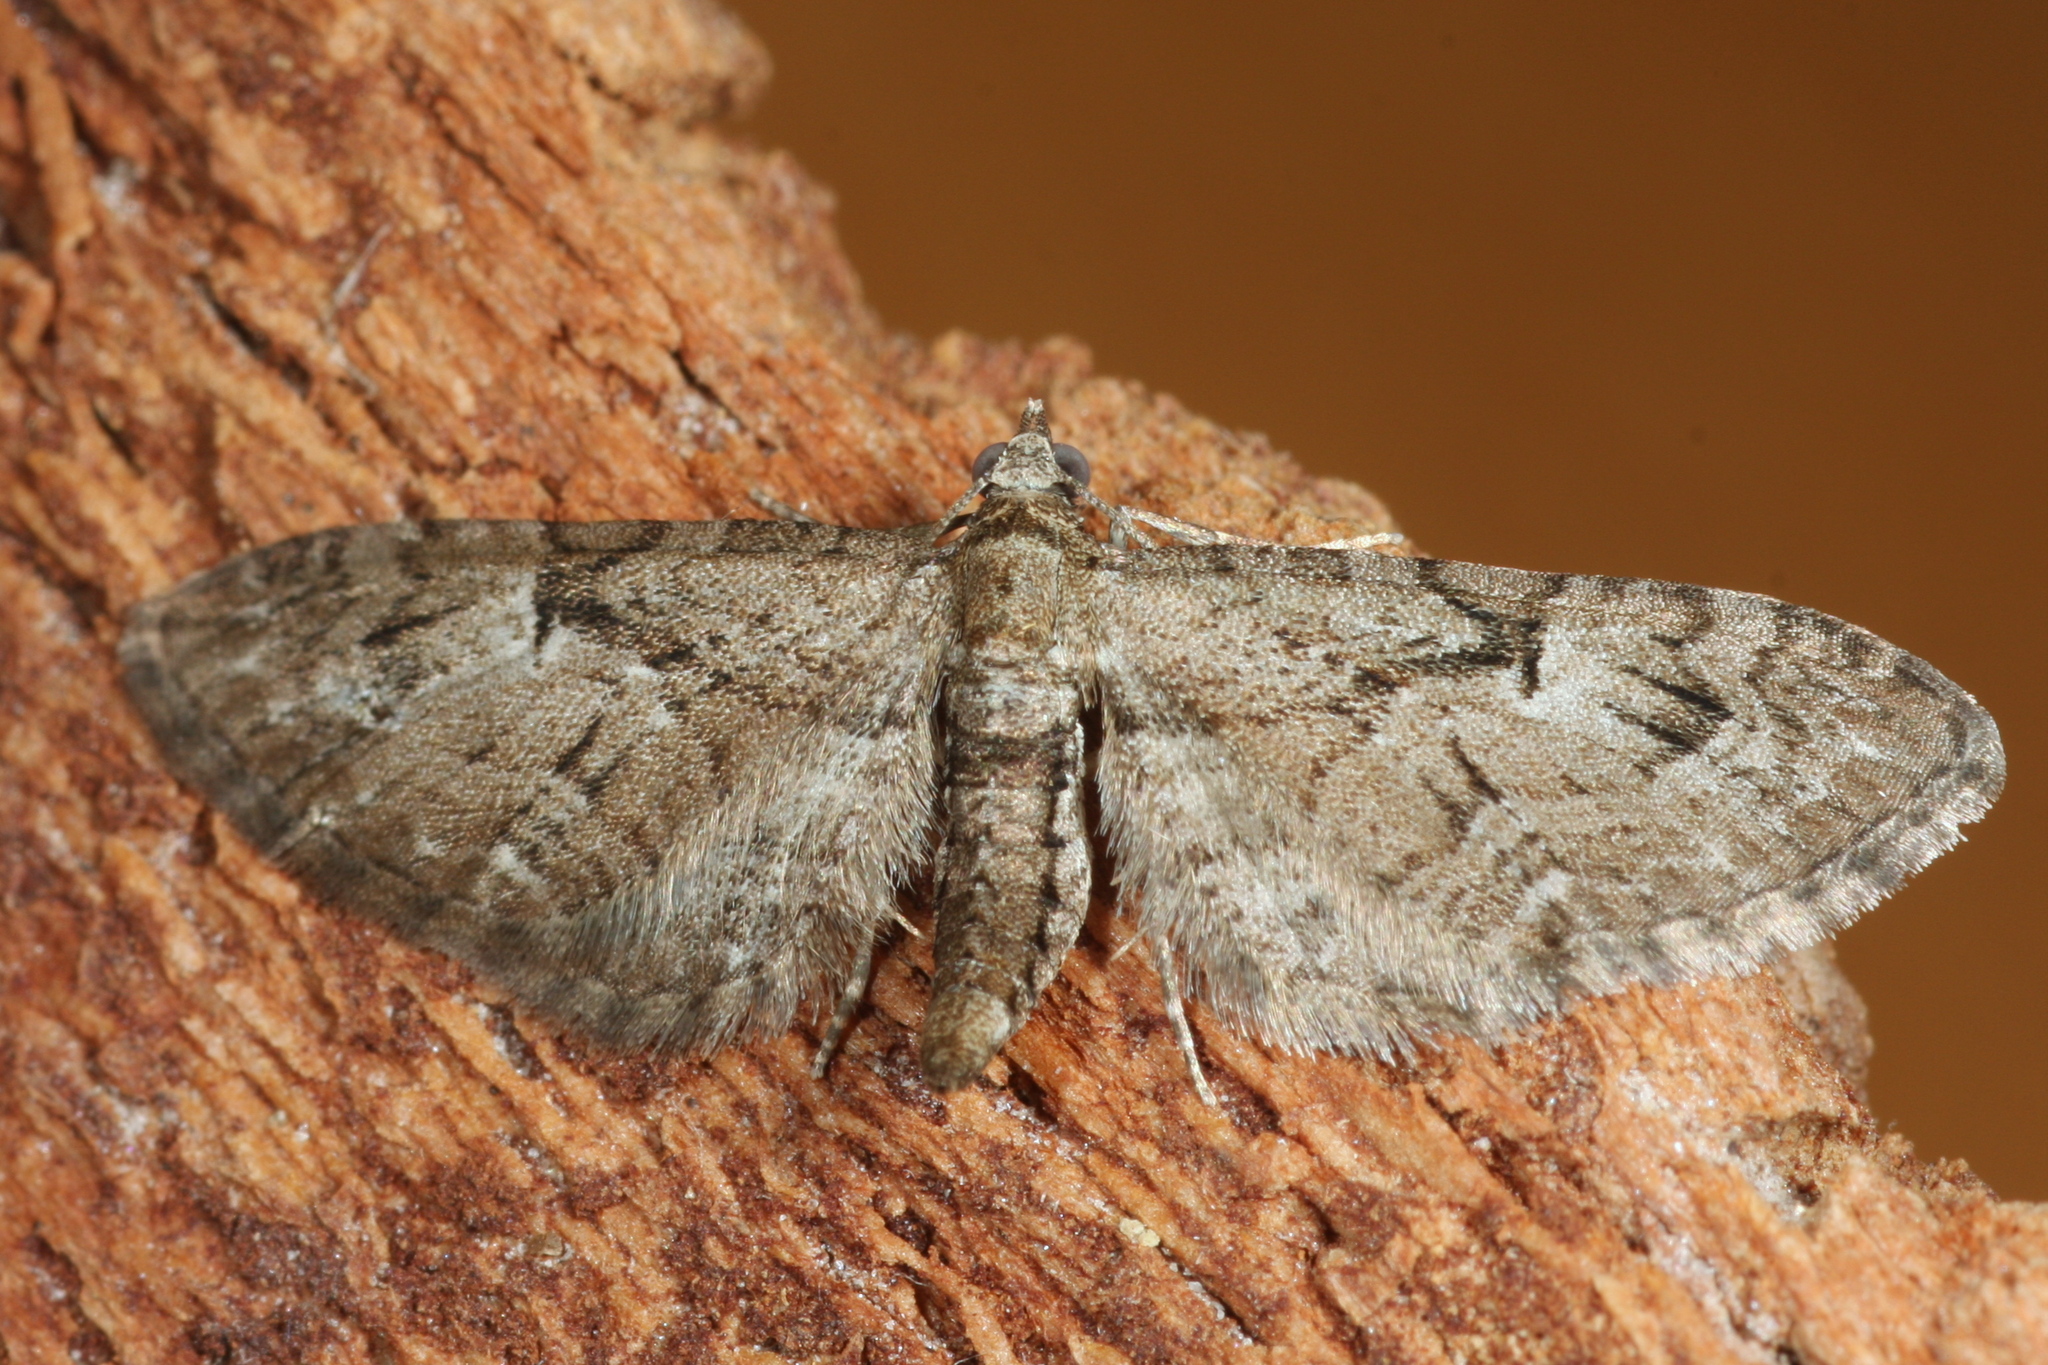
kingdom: Animalia
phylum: Arthropoda
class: Insecta
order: Lepidoptera
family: Geometridae
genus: Eupithecia
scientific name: Eupithecia pusillata
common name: Juniper pug
